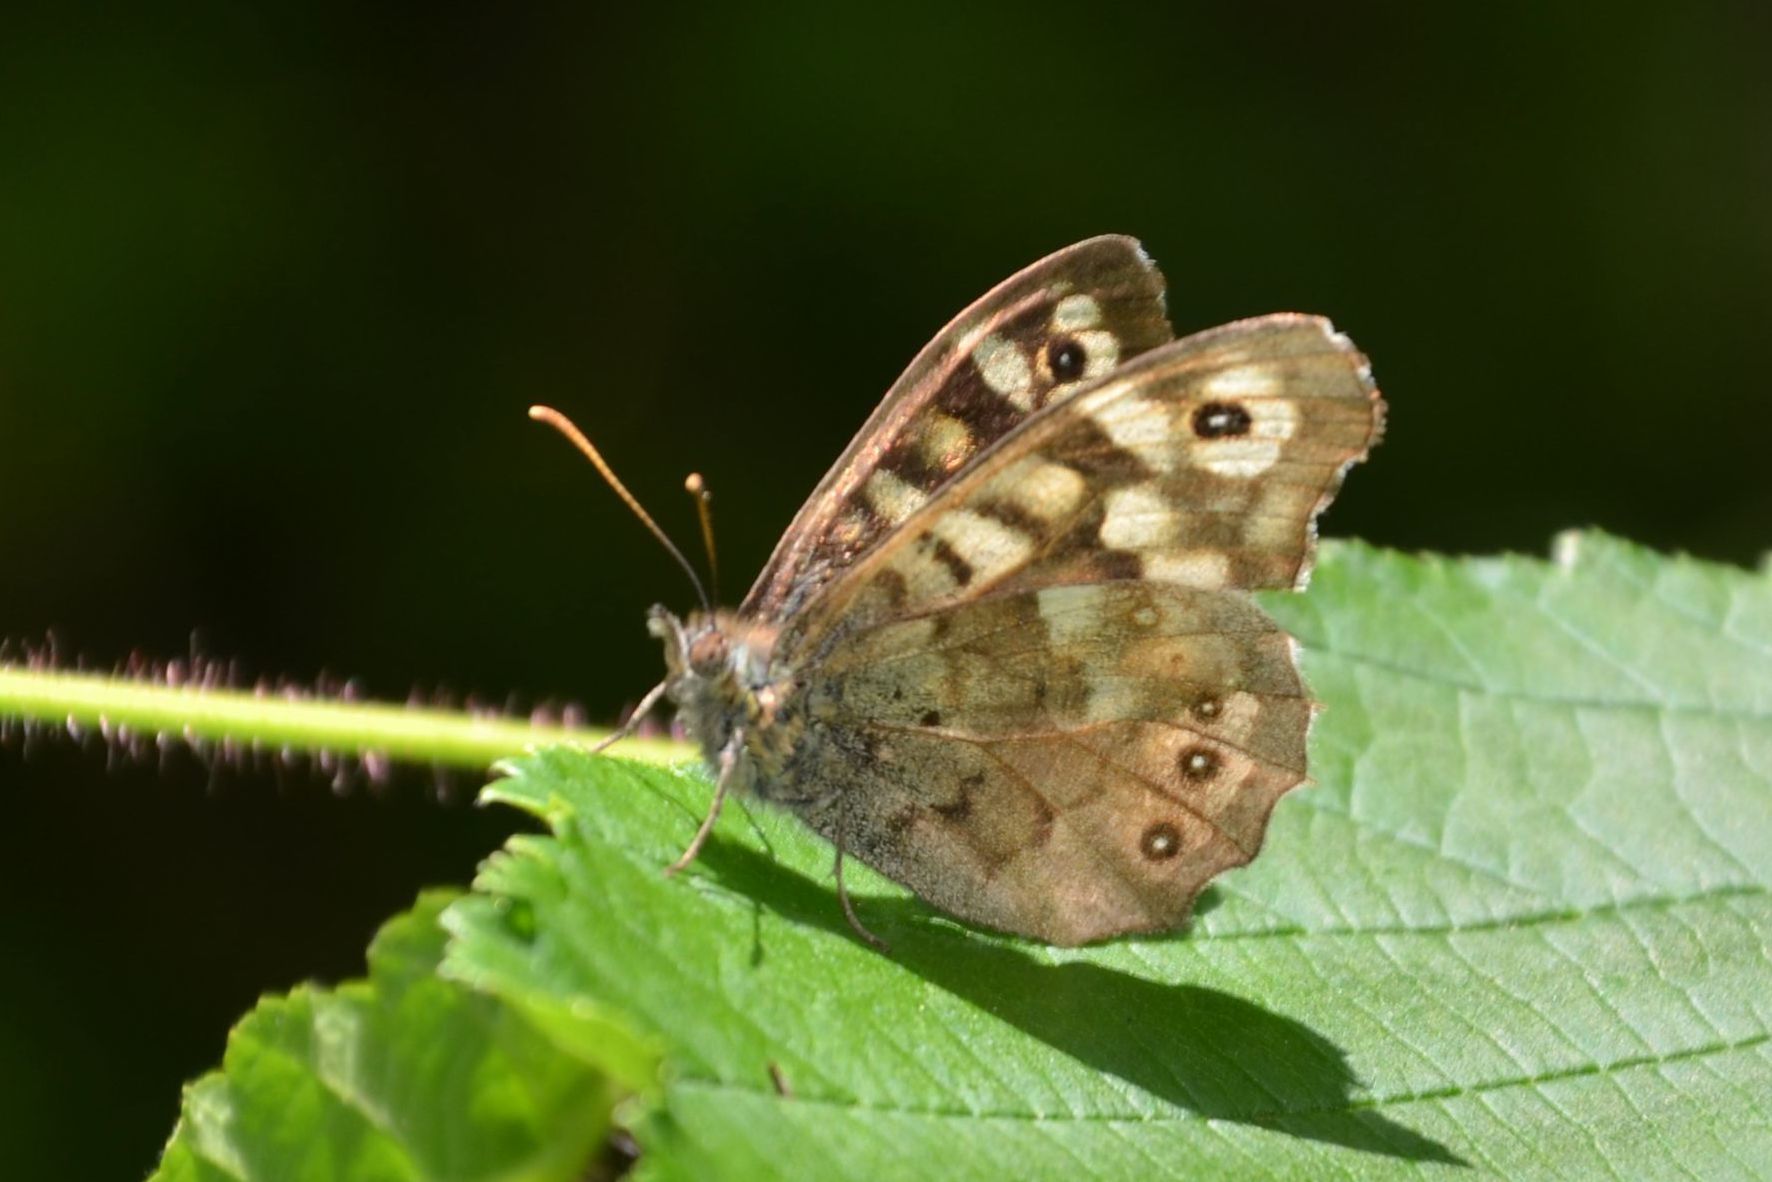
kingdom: Animalia
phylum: Arthropoda
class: Insecta
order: Lepidoptera
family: Nymphalidae
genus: Pararge
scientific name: Pararge aegeria
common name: Speckled wood
